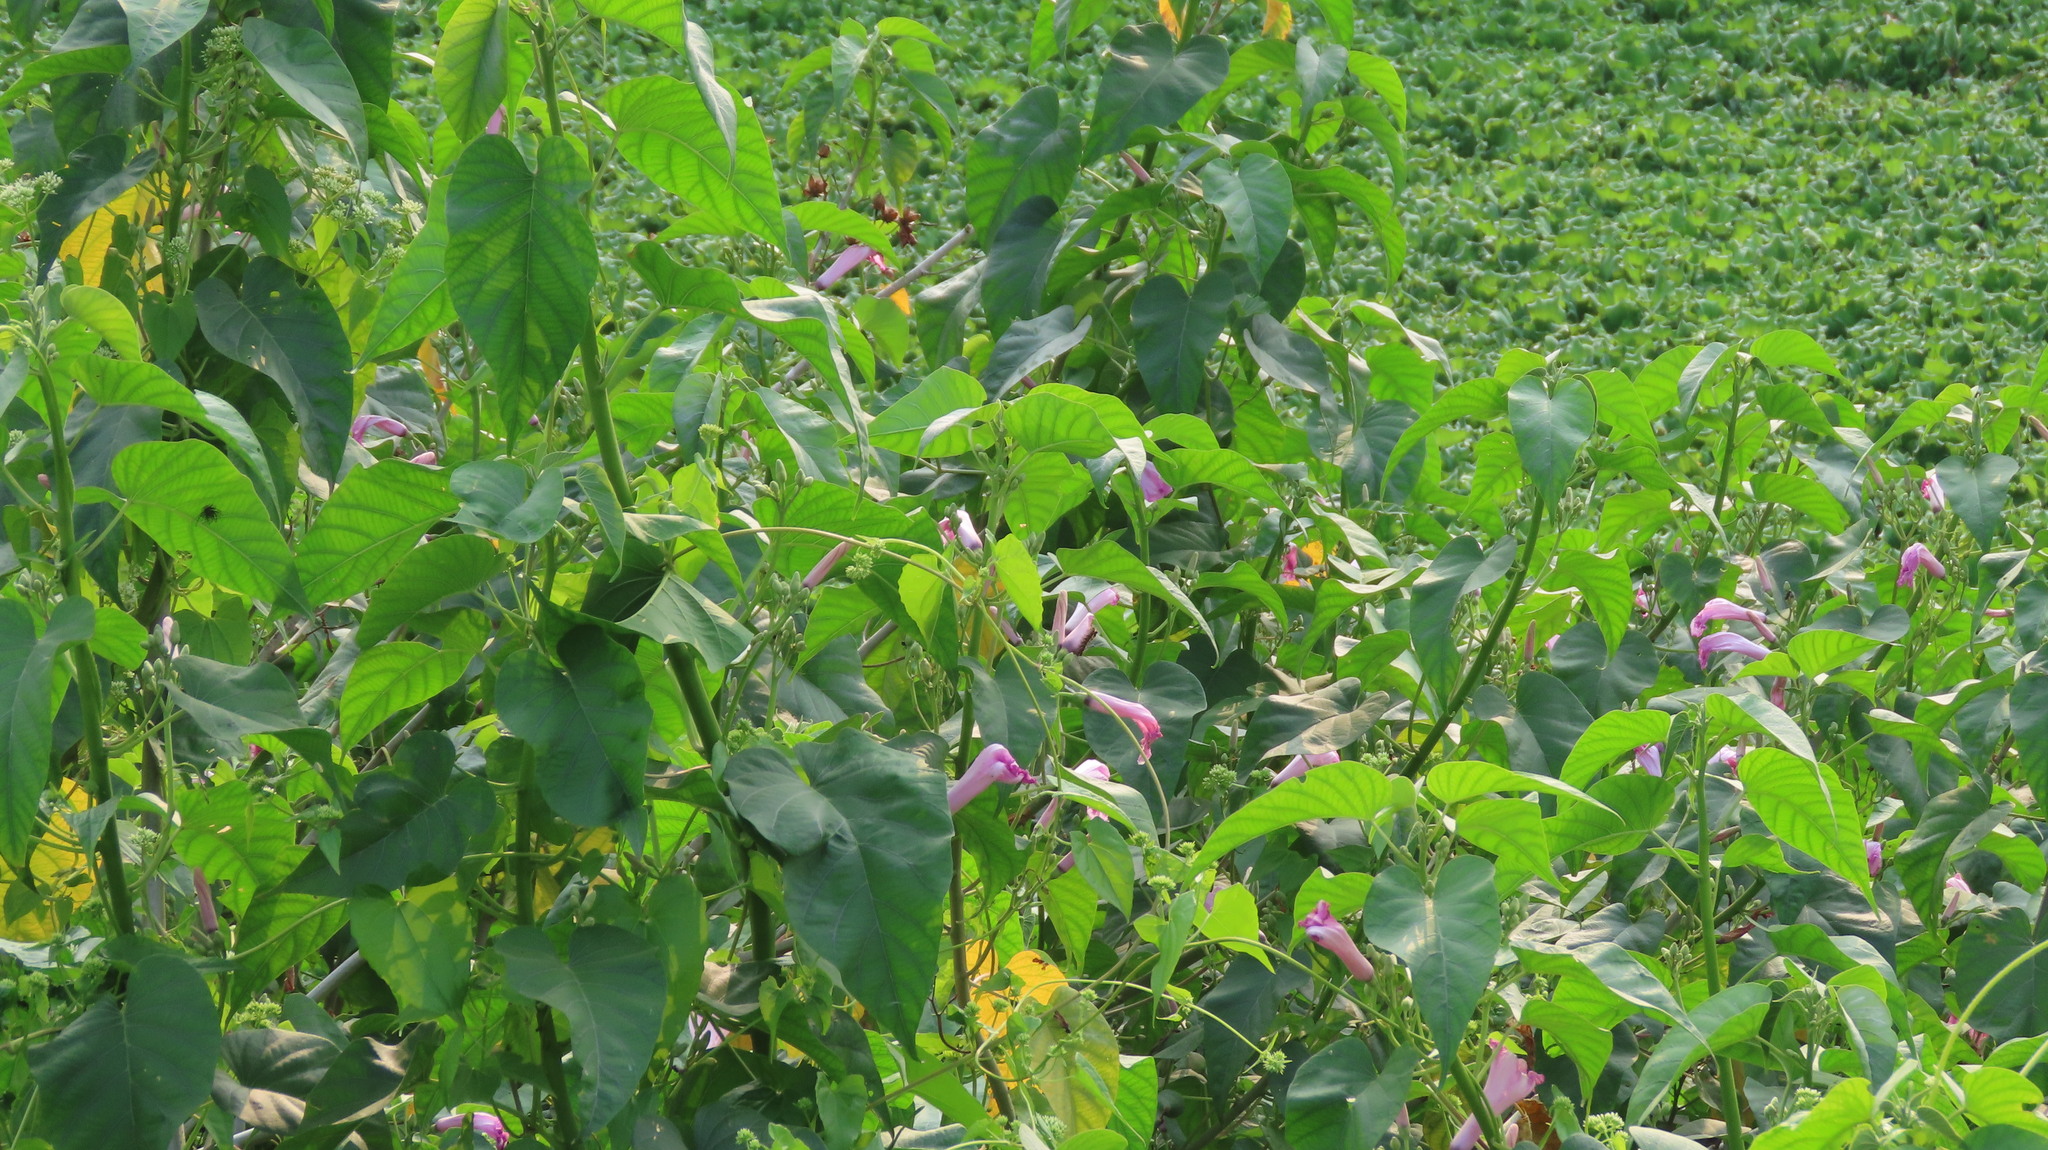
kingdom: Plantae
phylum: Tracheophyta
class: Magnoliopsida
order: Solanales
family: Convolvulaceae
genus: Ipomoea
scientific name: Ipomoea carnea
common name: Morning-glory
